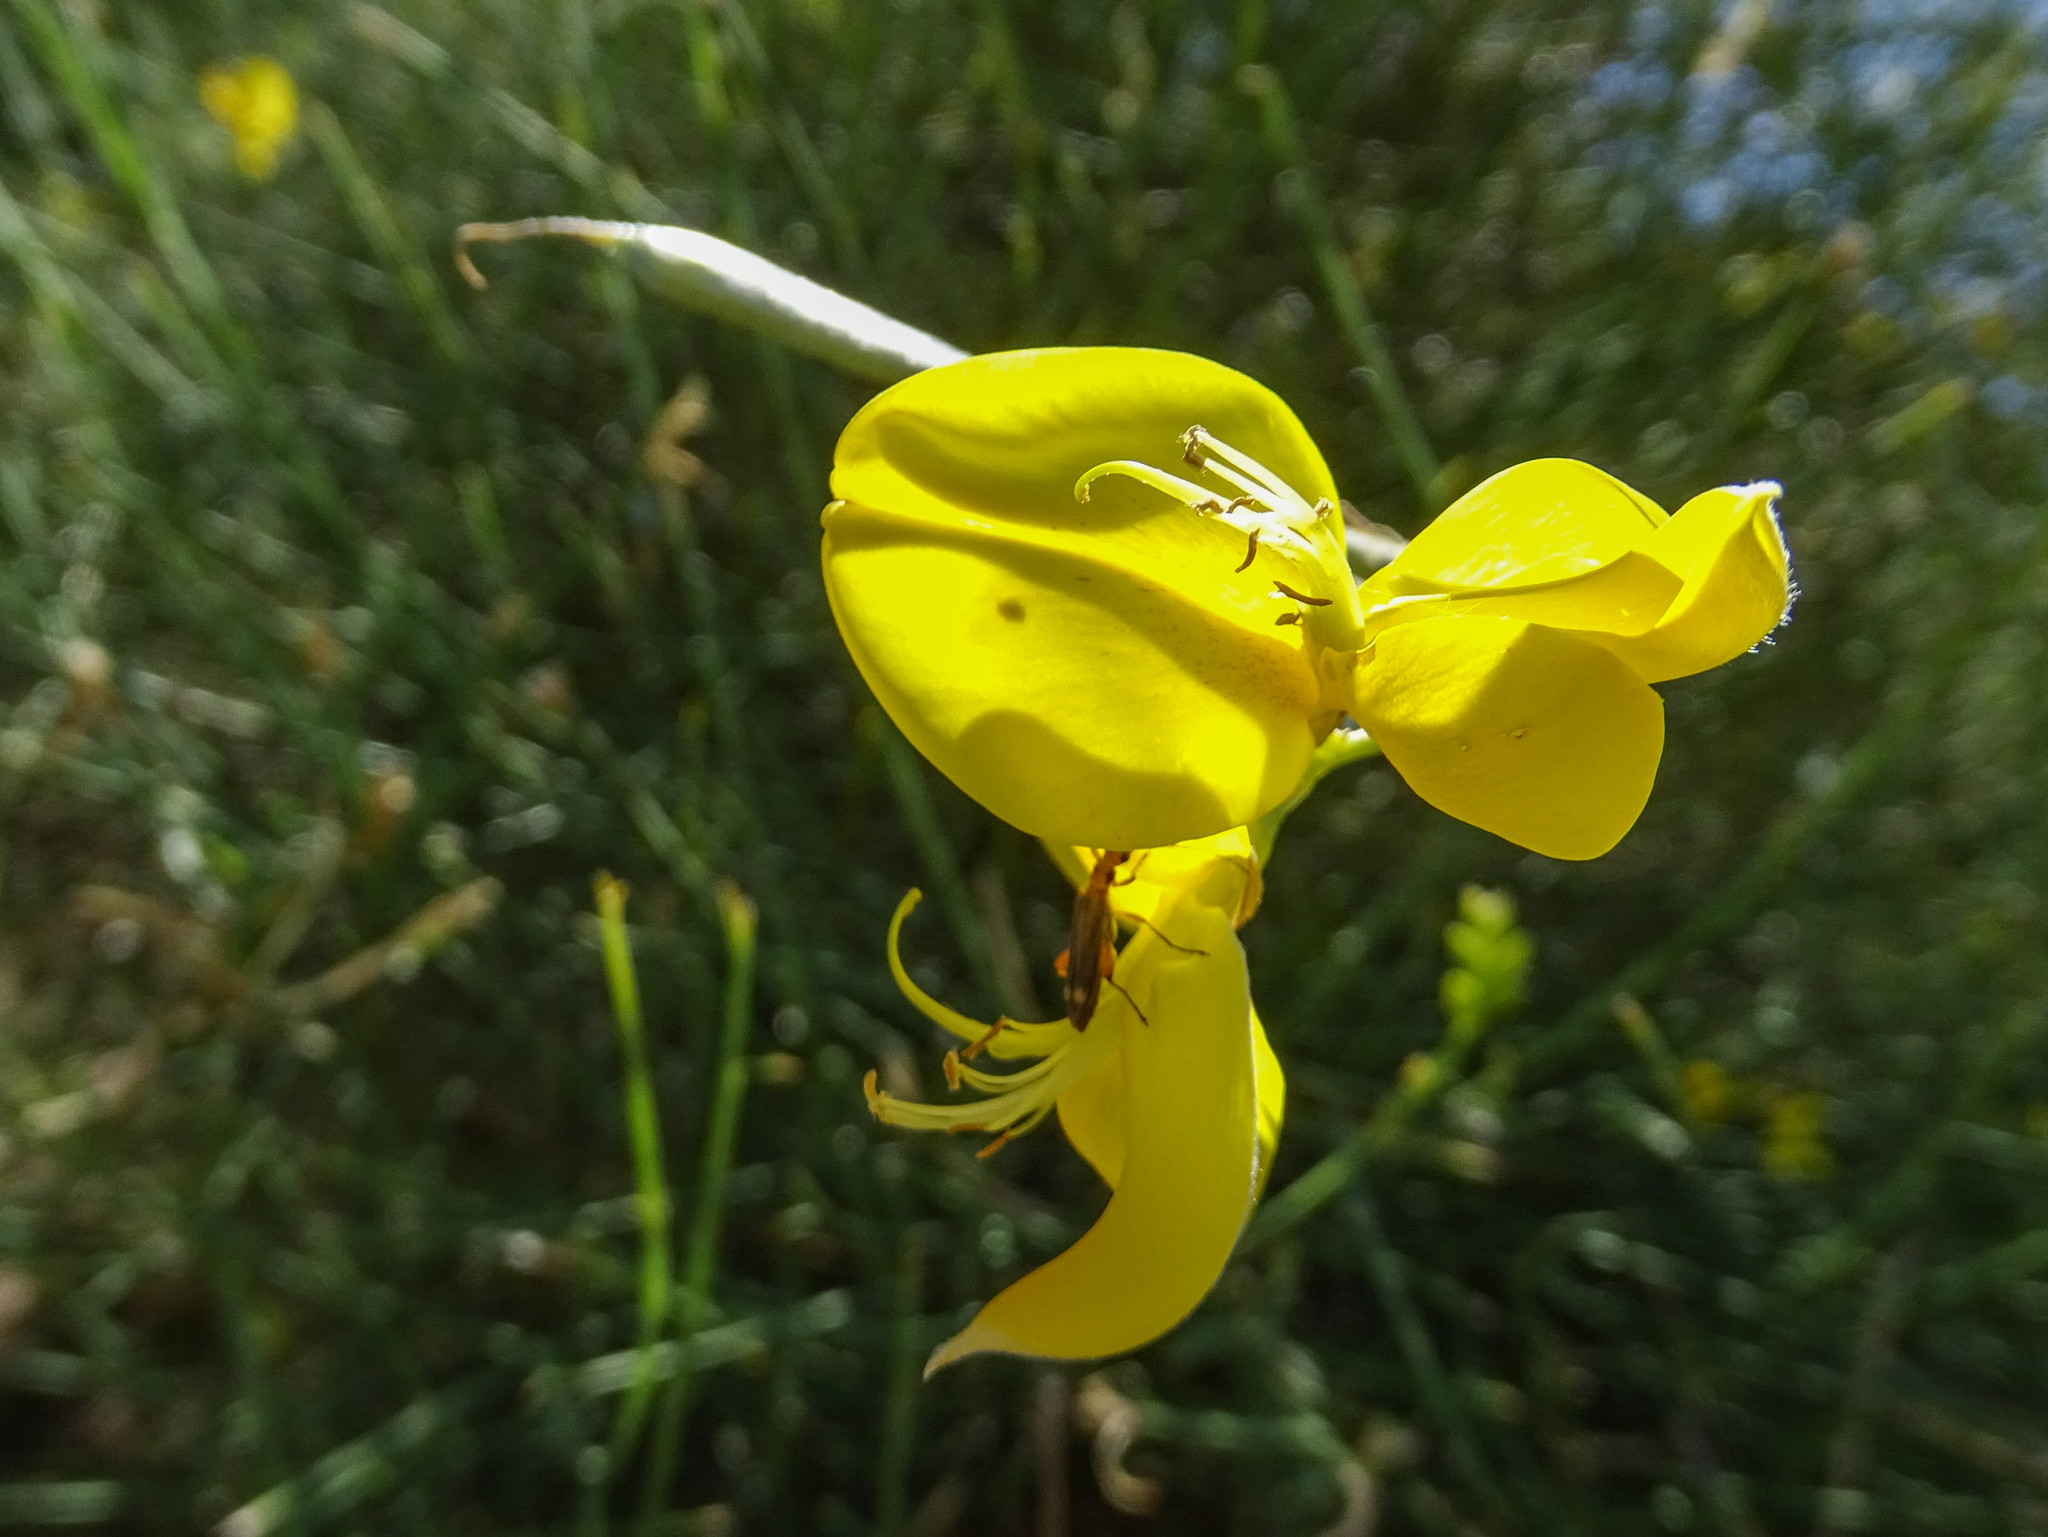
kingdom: Plantae
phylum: Tracheophyta
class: Magnoliopsida
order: Fabales
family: Fabaceae
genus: Spartium
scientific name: Spartium junceum
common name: Spanish broom
